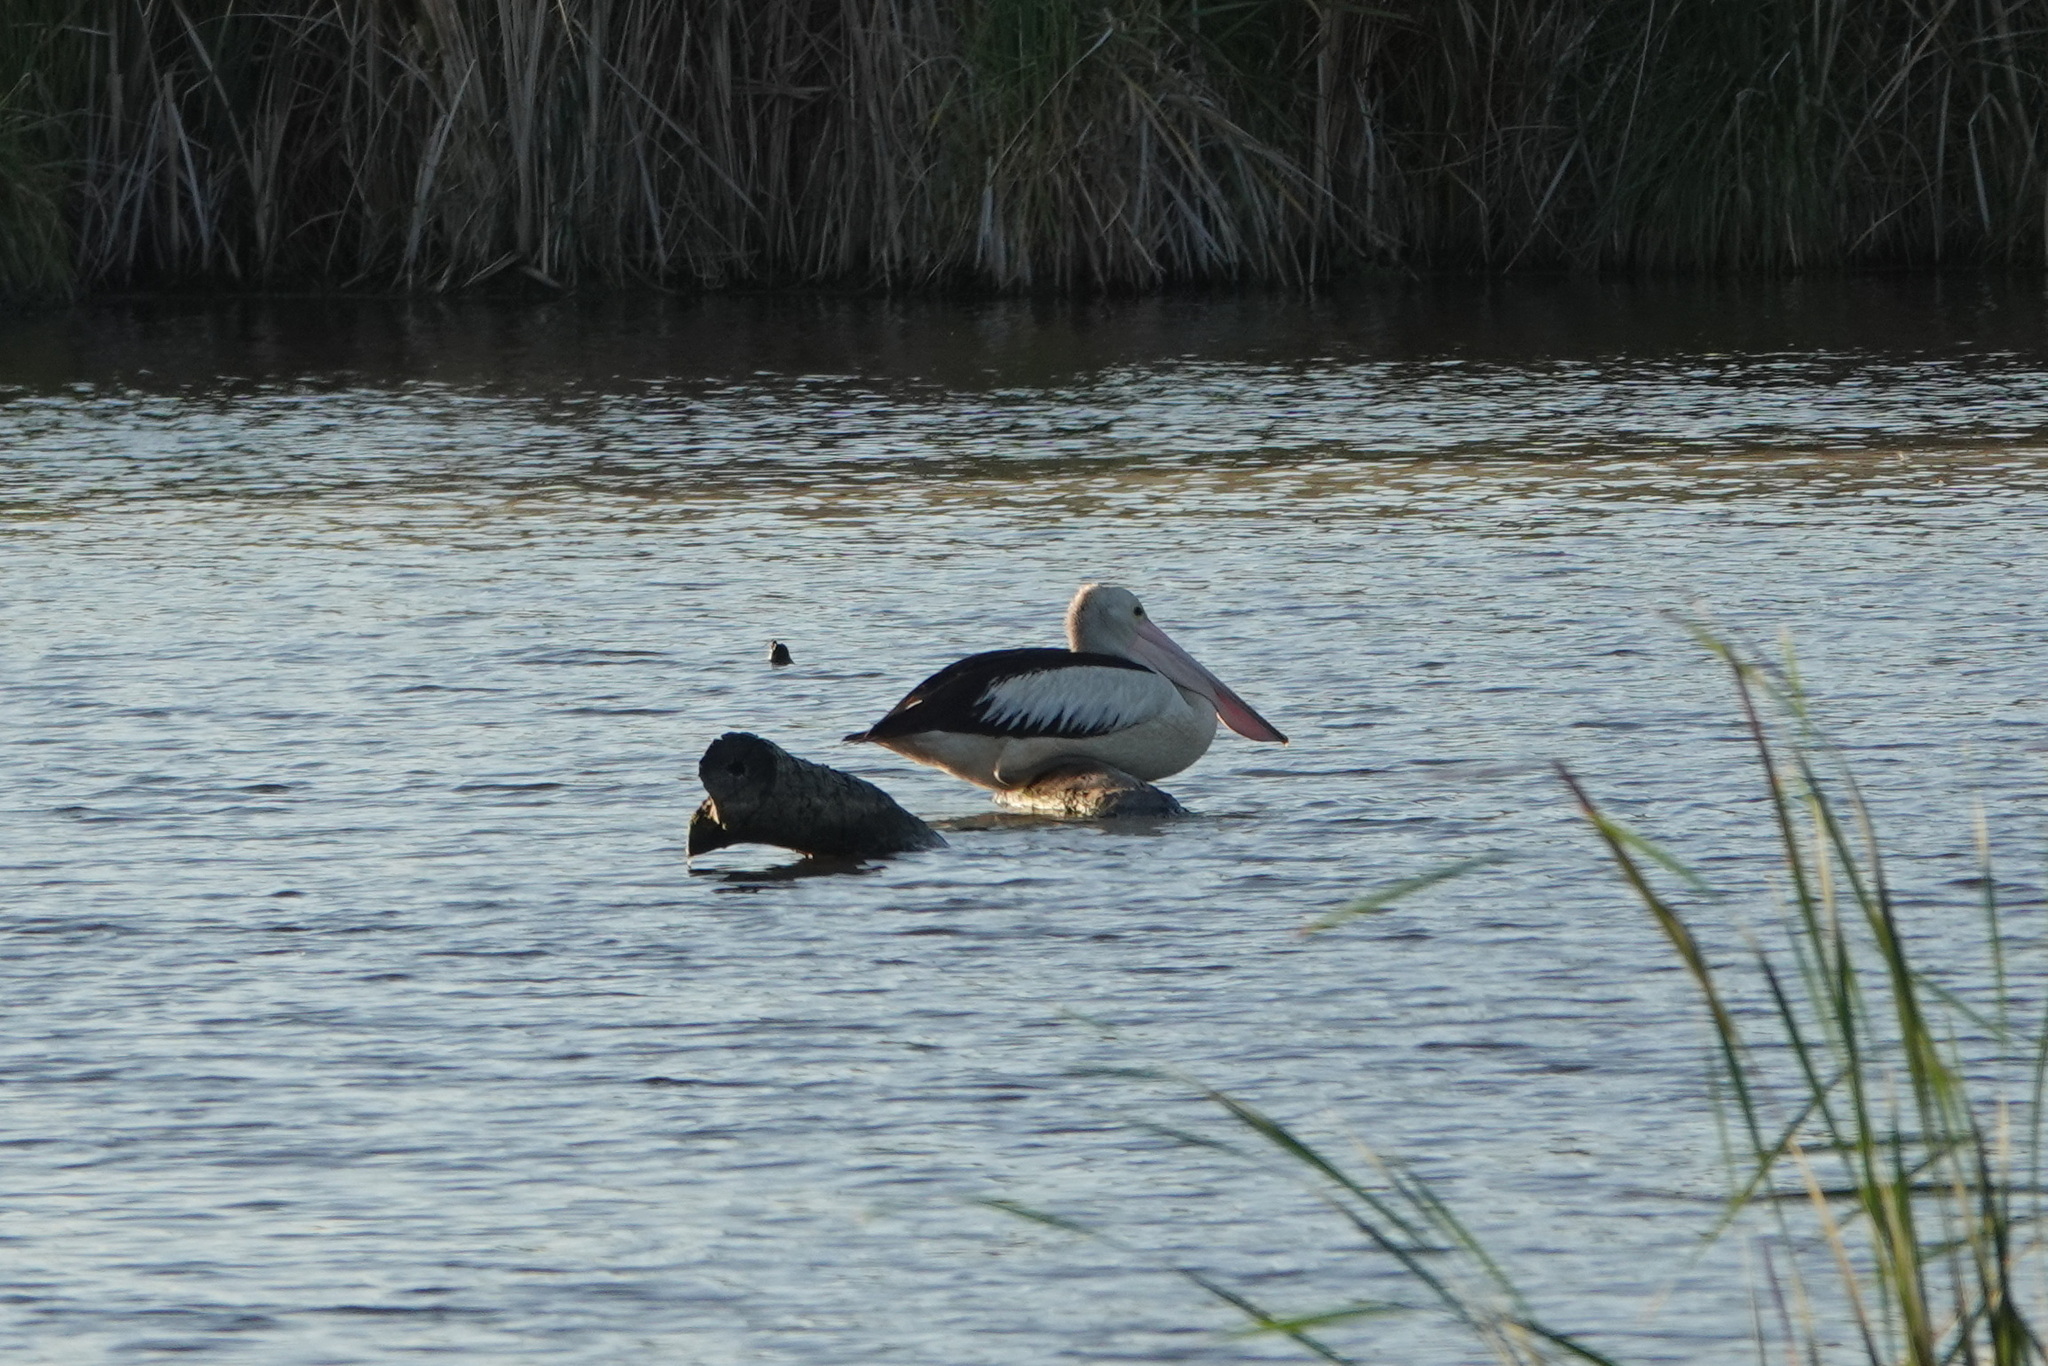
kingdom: Animalia
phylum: Chordata
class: Aves
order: Pelecaniformes
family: Pelecanidae
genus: Pelecanus
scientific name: Pelecanus conspicillatus
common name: Australian pelican
